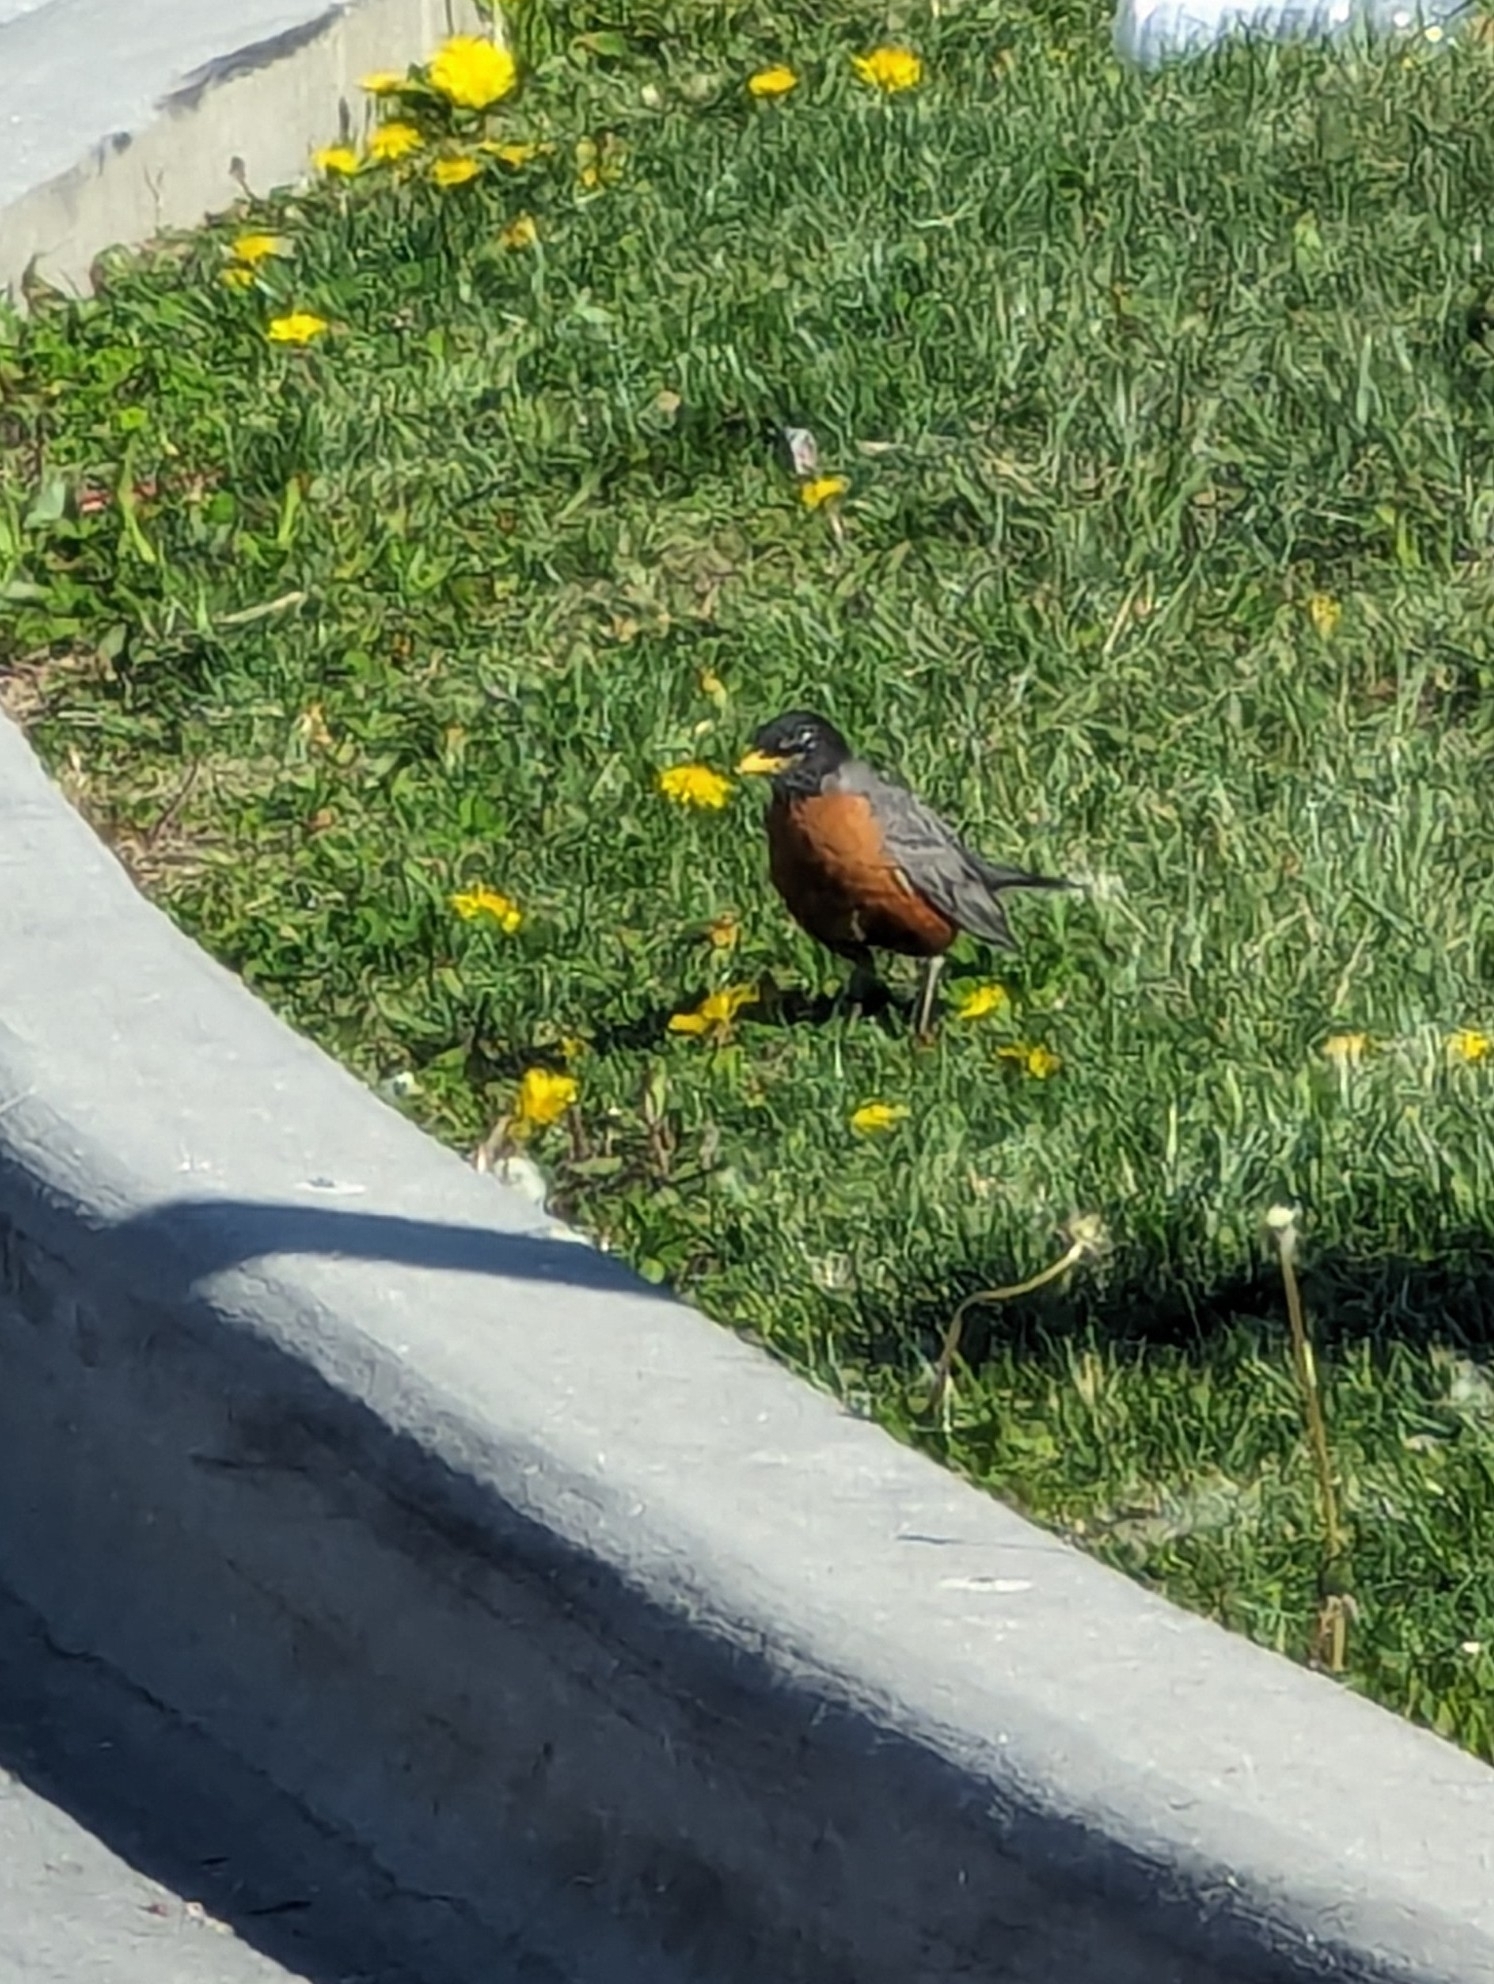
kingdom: Animalia
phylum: Chordata
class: Aves
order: Passeriformes
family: Turdidae
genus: Turdus
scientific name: Turdus migratorius
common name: American robin
